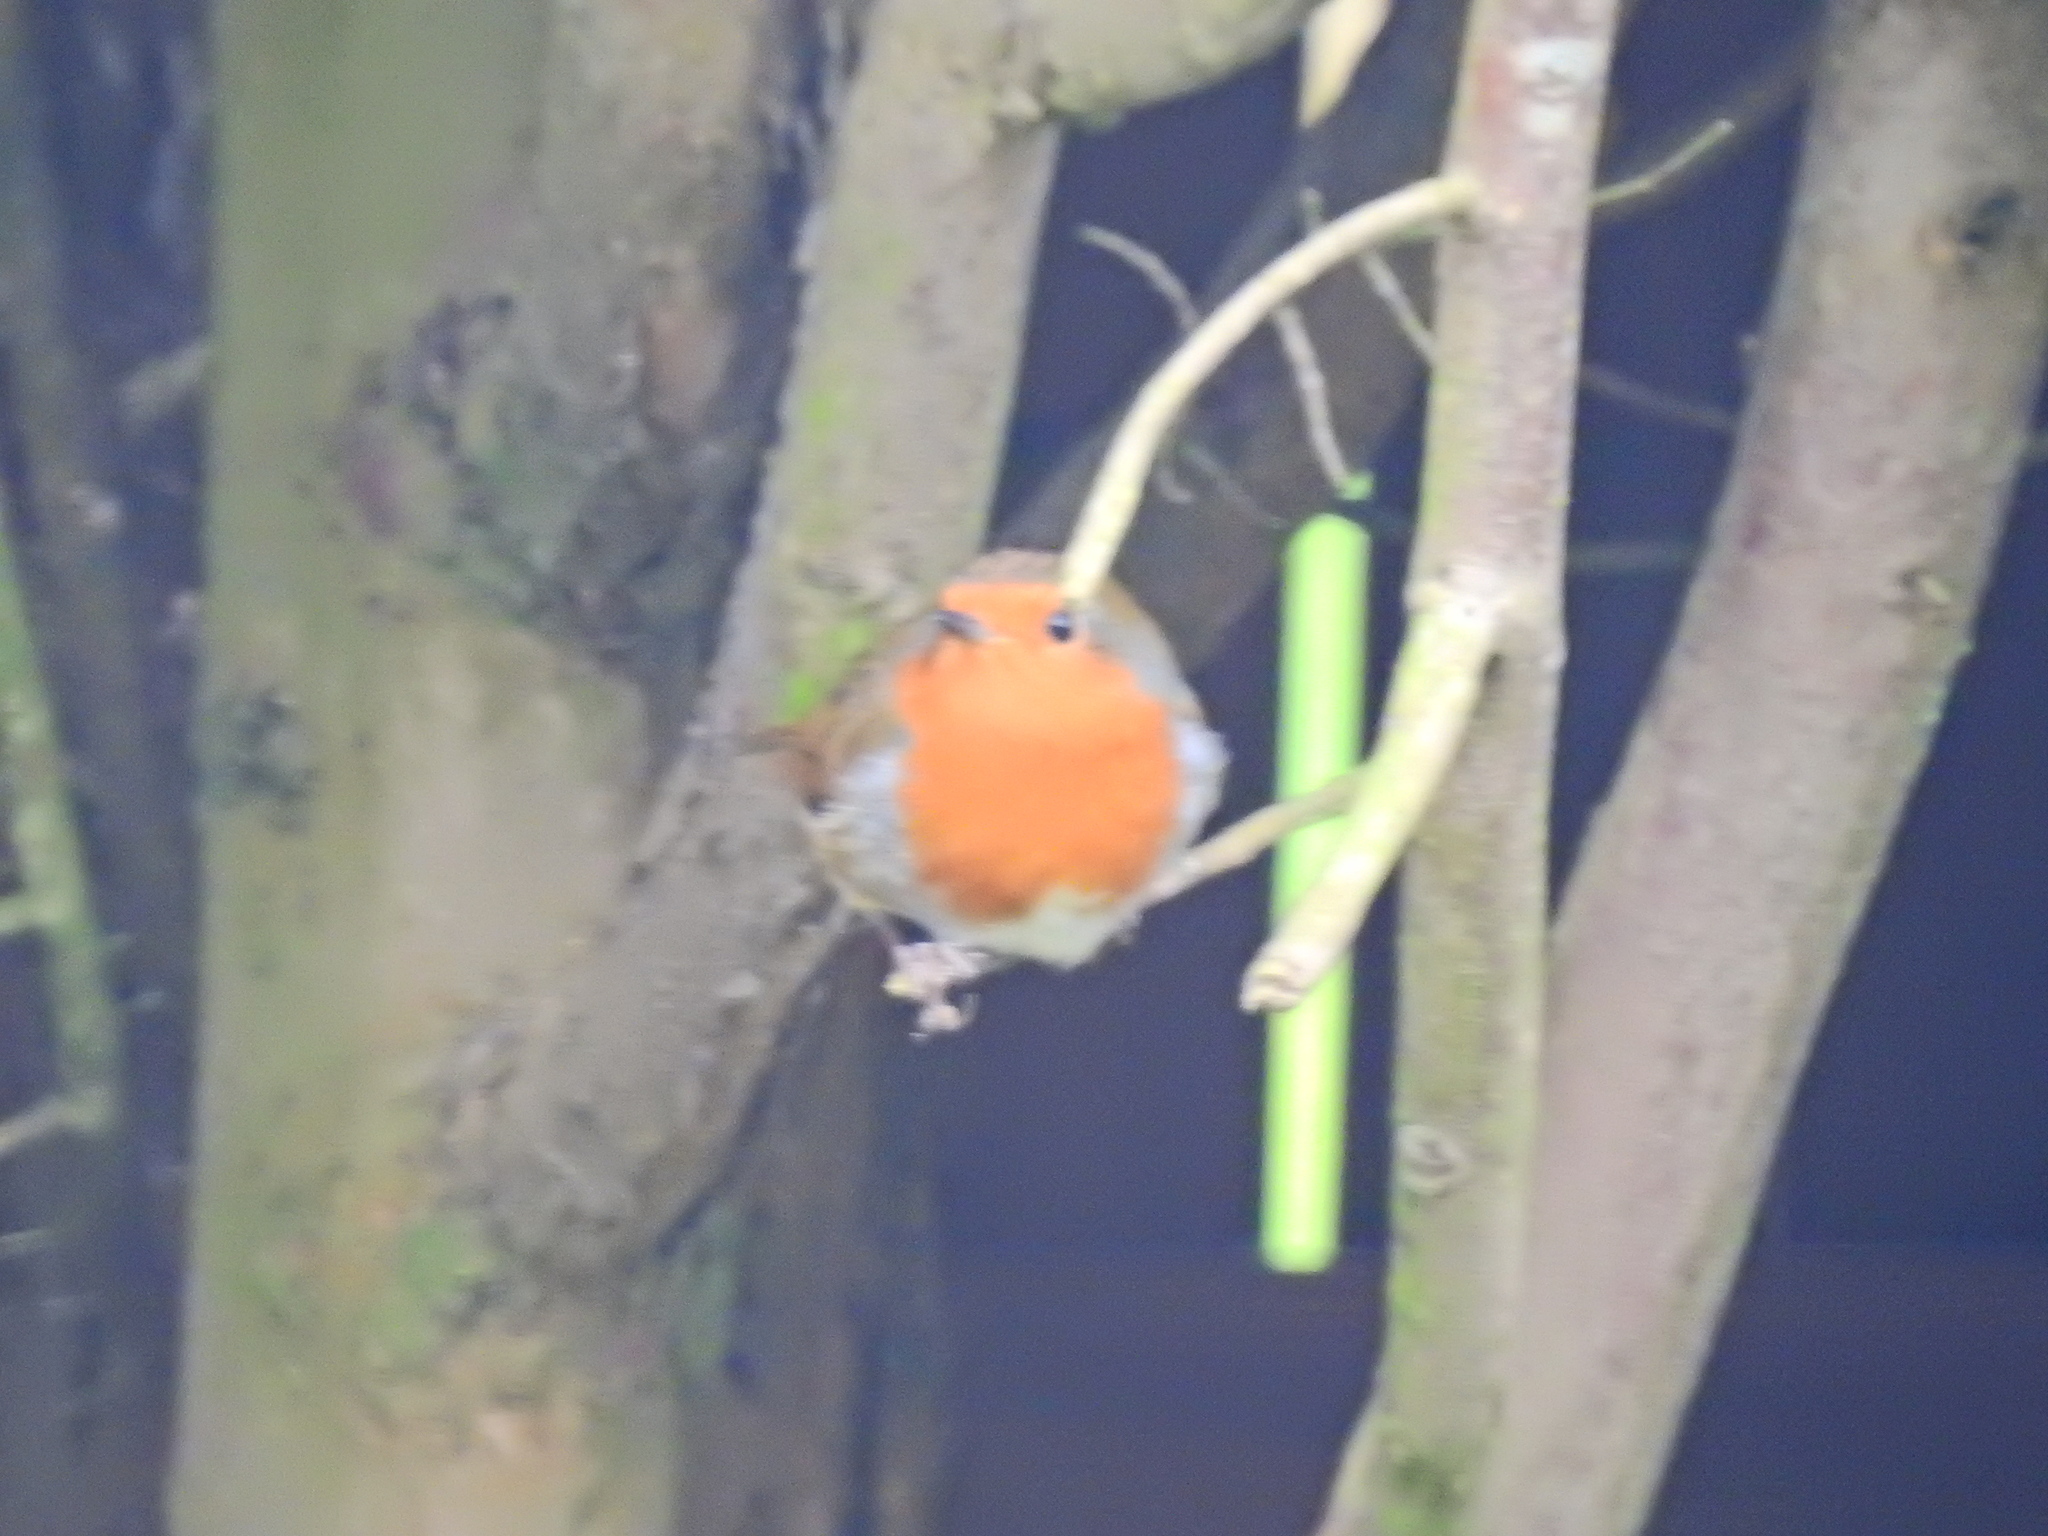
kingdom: Animalia
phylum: Chordata
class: Aves
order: Passeriformes
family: Muscicapidae
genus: Erithacus
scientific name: Erithacus rubecula
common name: European robin
